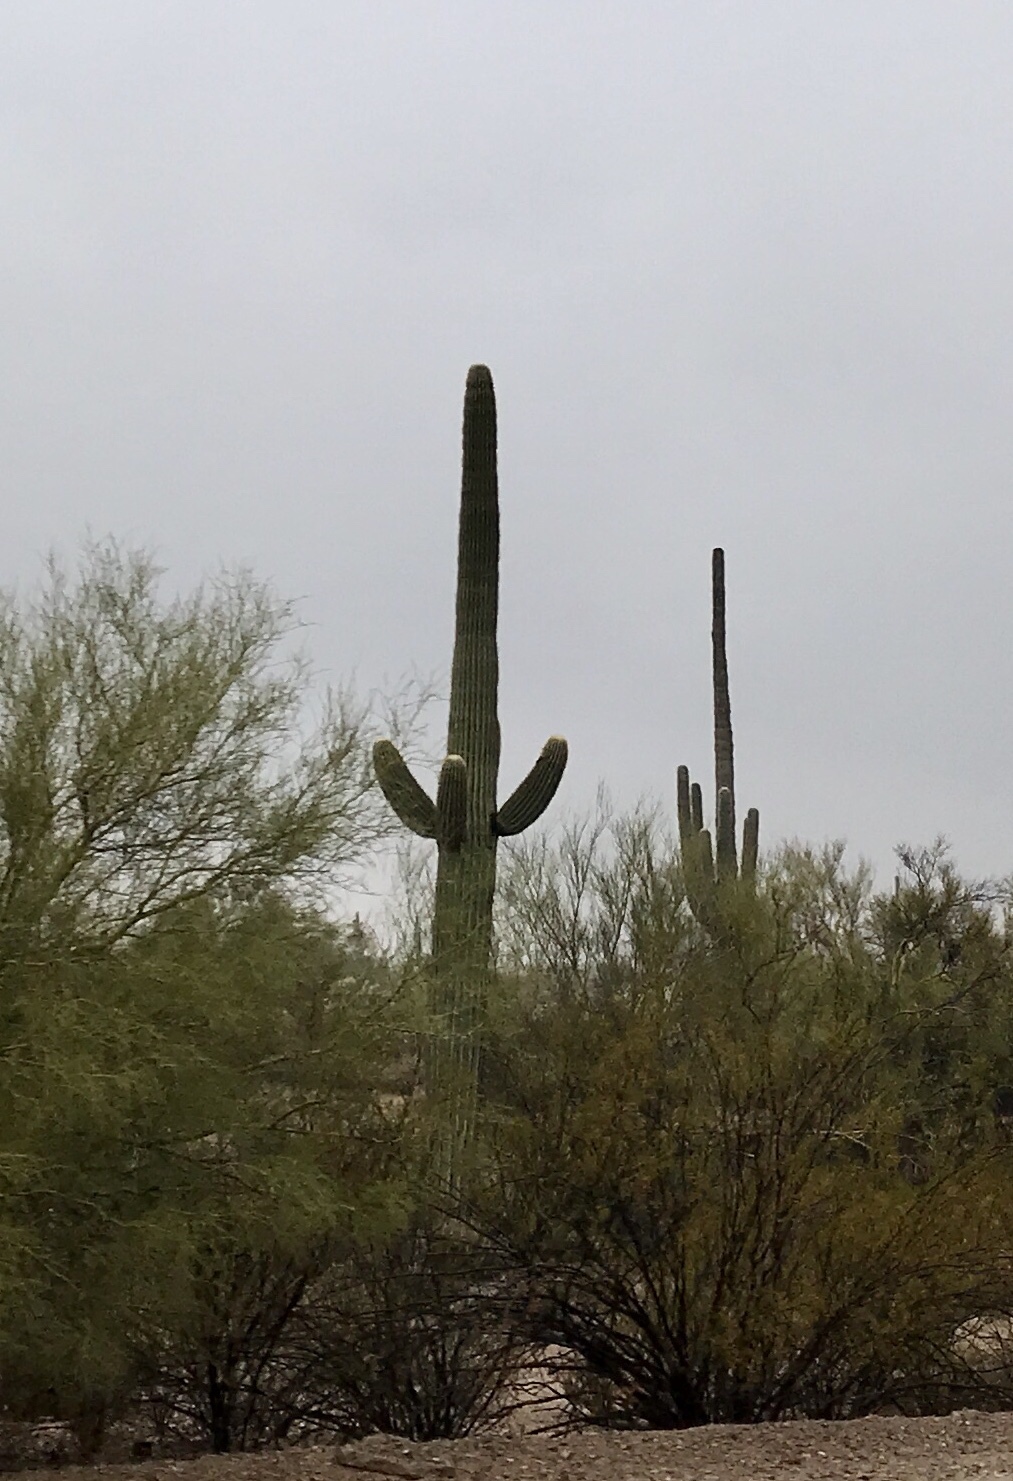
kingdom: Plantae
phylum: Tracheophyta
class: Magnoliopsida
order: Caryophyllales
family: Cactaceae
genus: Carnegiea
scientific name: Carnegiea gigantea
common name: Saguaro
